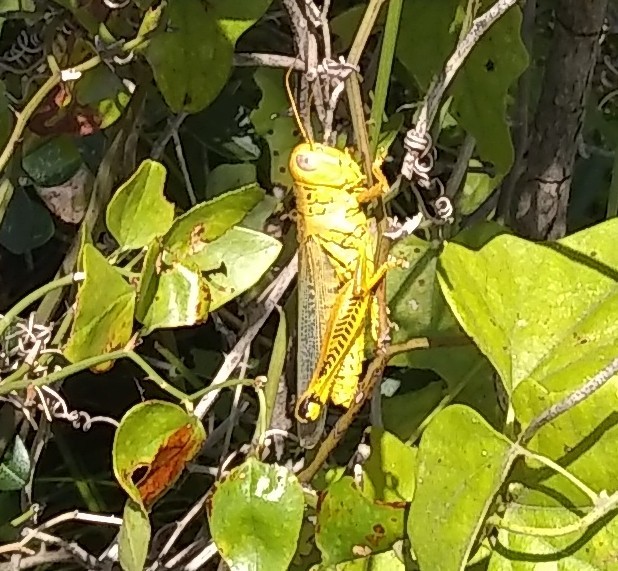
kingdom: Animalia
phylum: Arthropoda
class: Insecta
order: Orthoptera
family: Acrididae
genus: Melanoplus
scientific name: Melanoplus differentialis
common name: Differential grasshopper
